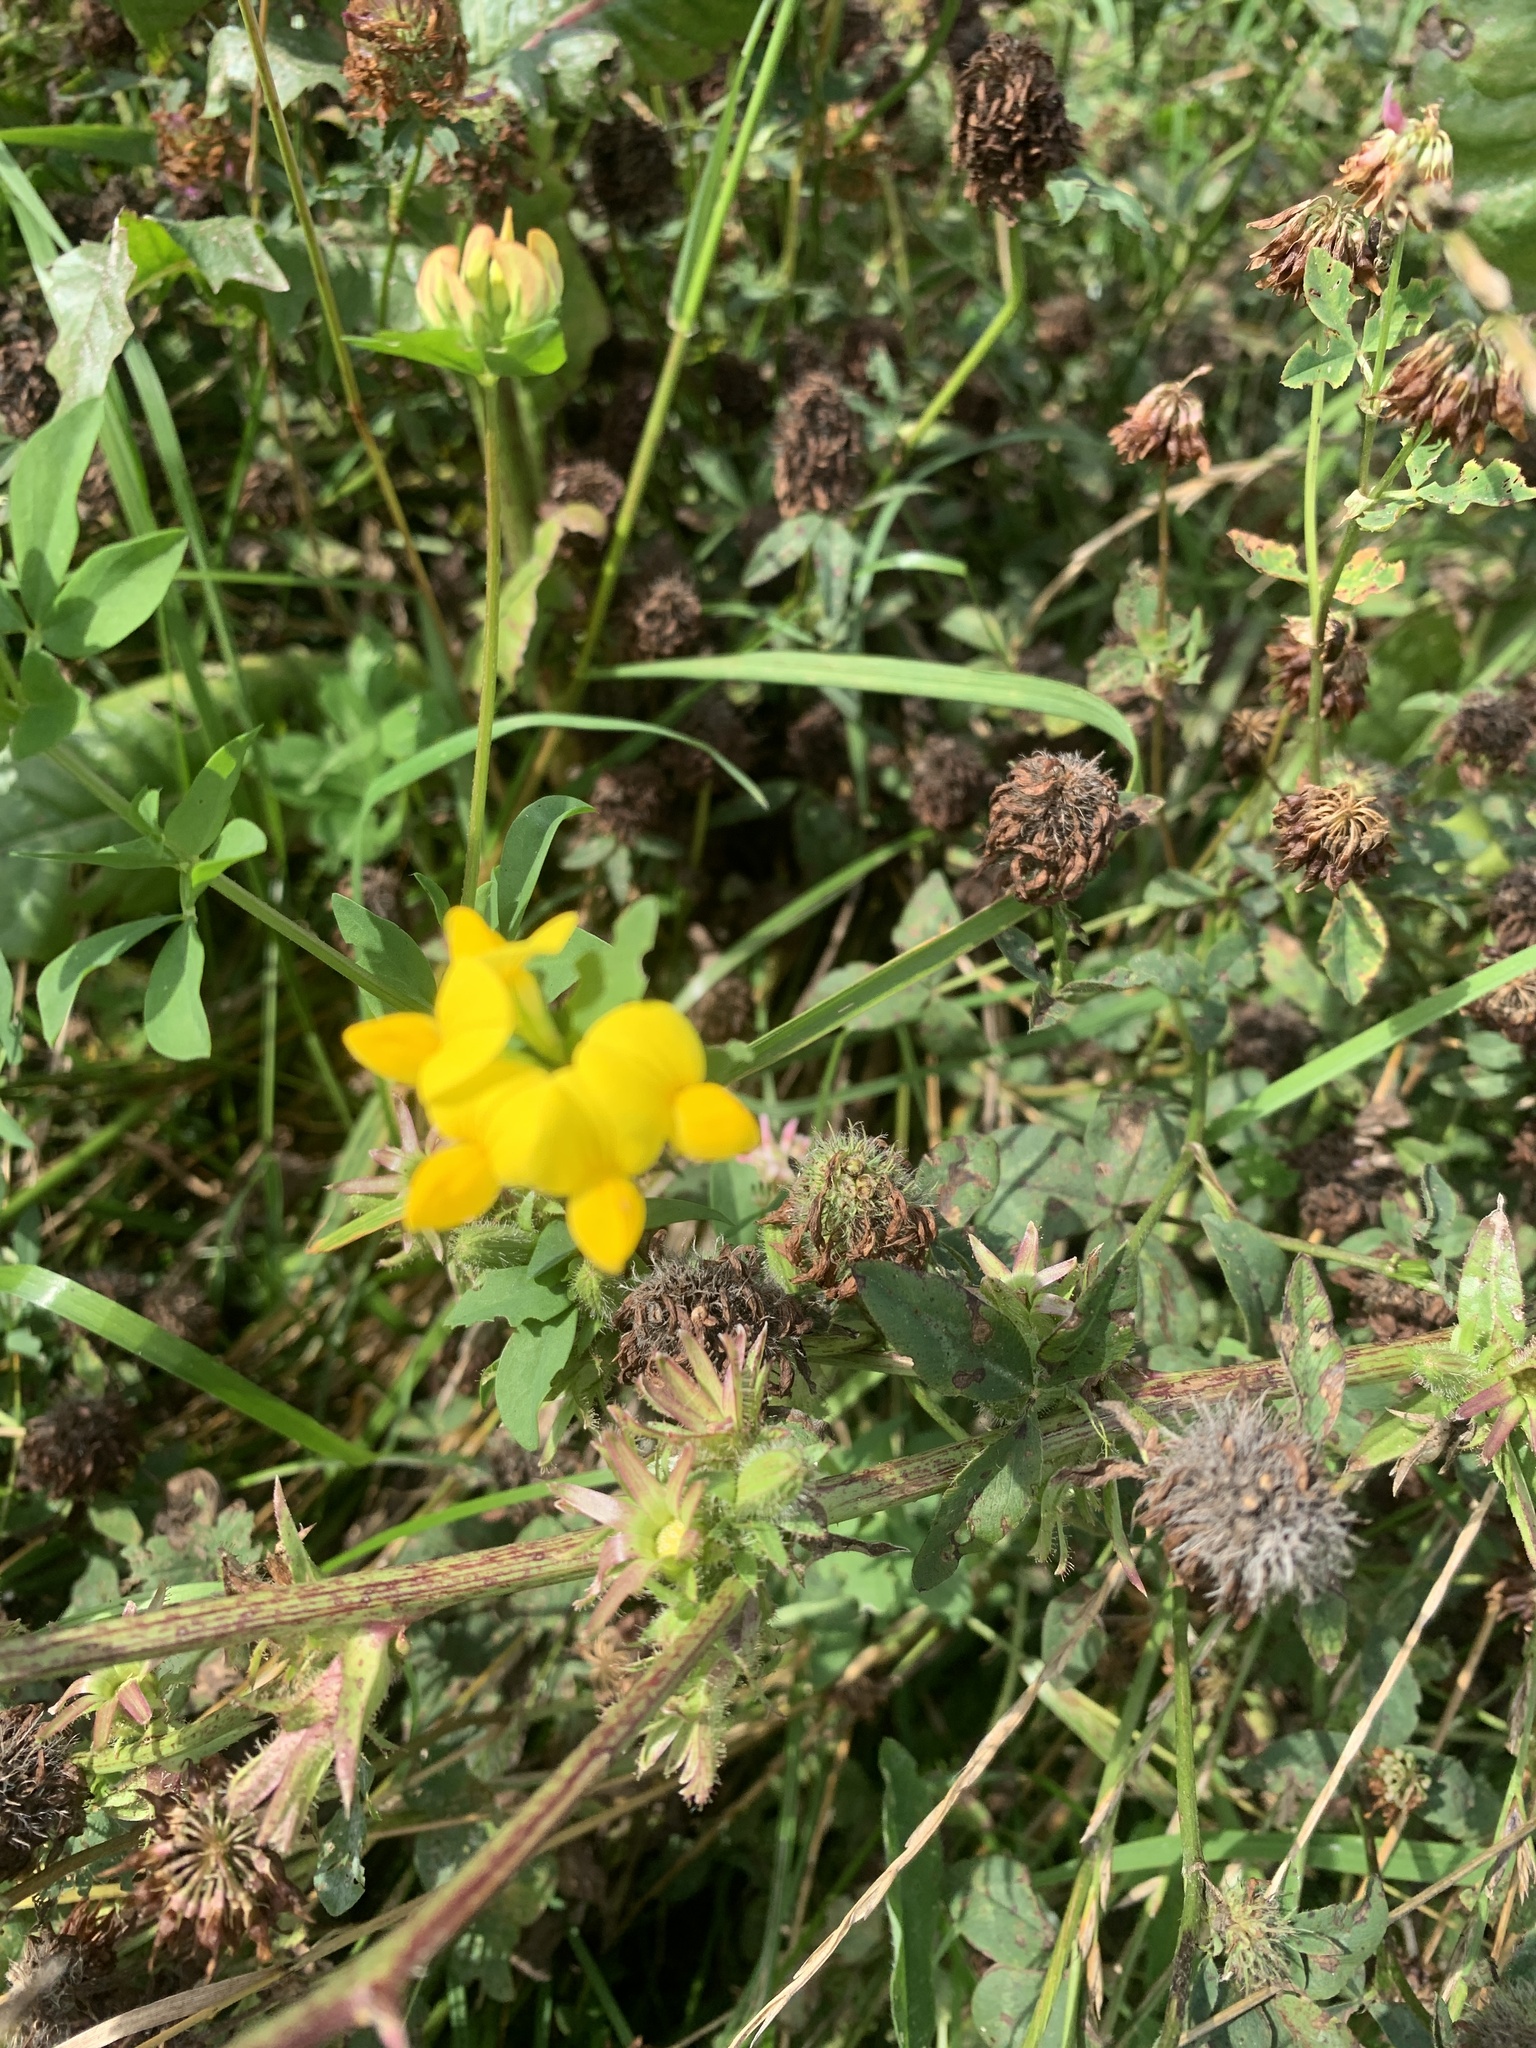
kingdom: Plantae
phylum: Tracheophyta
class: Magnoliopsida
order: Fabales
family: Fabaceae
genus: Lotus
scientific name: Lotus corniculatus
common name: Common bird's-foot-trefoil
